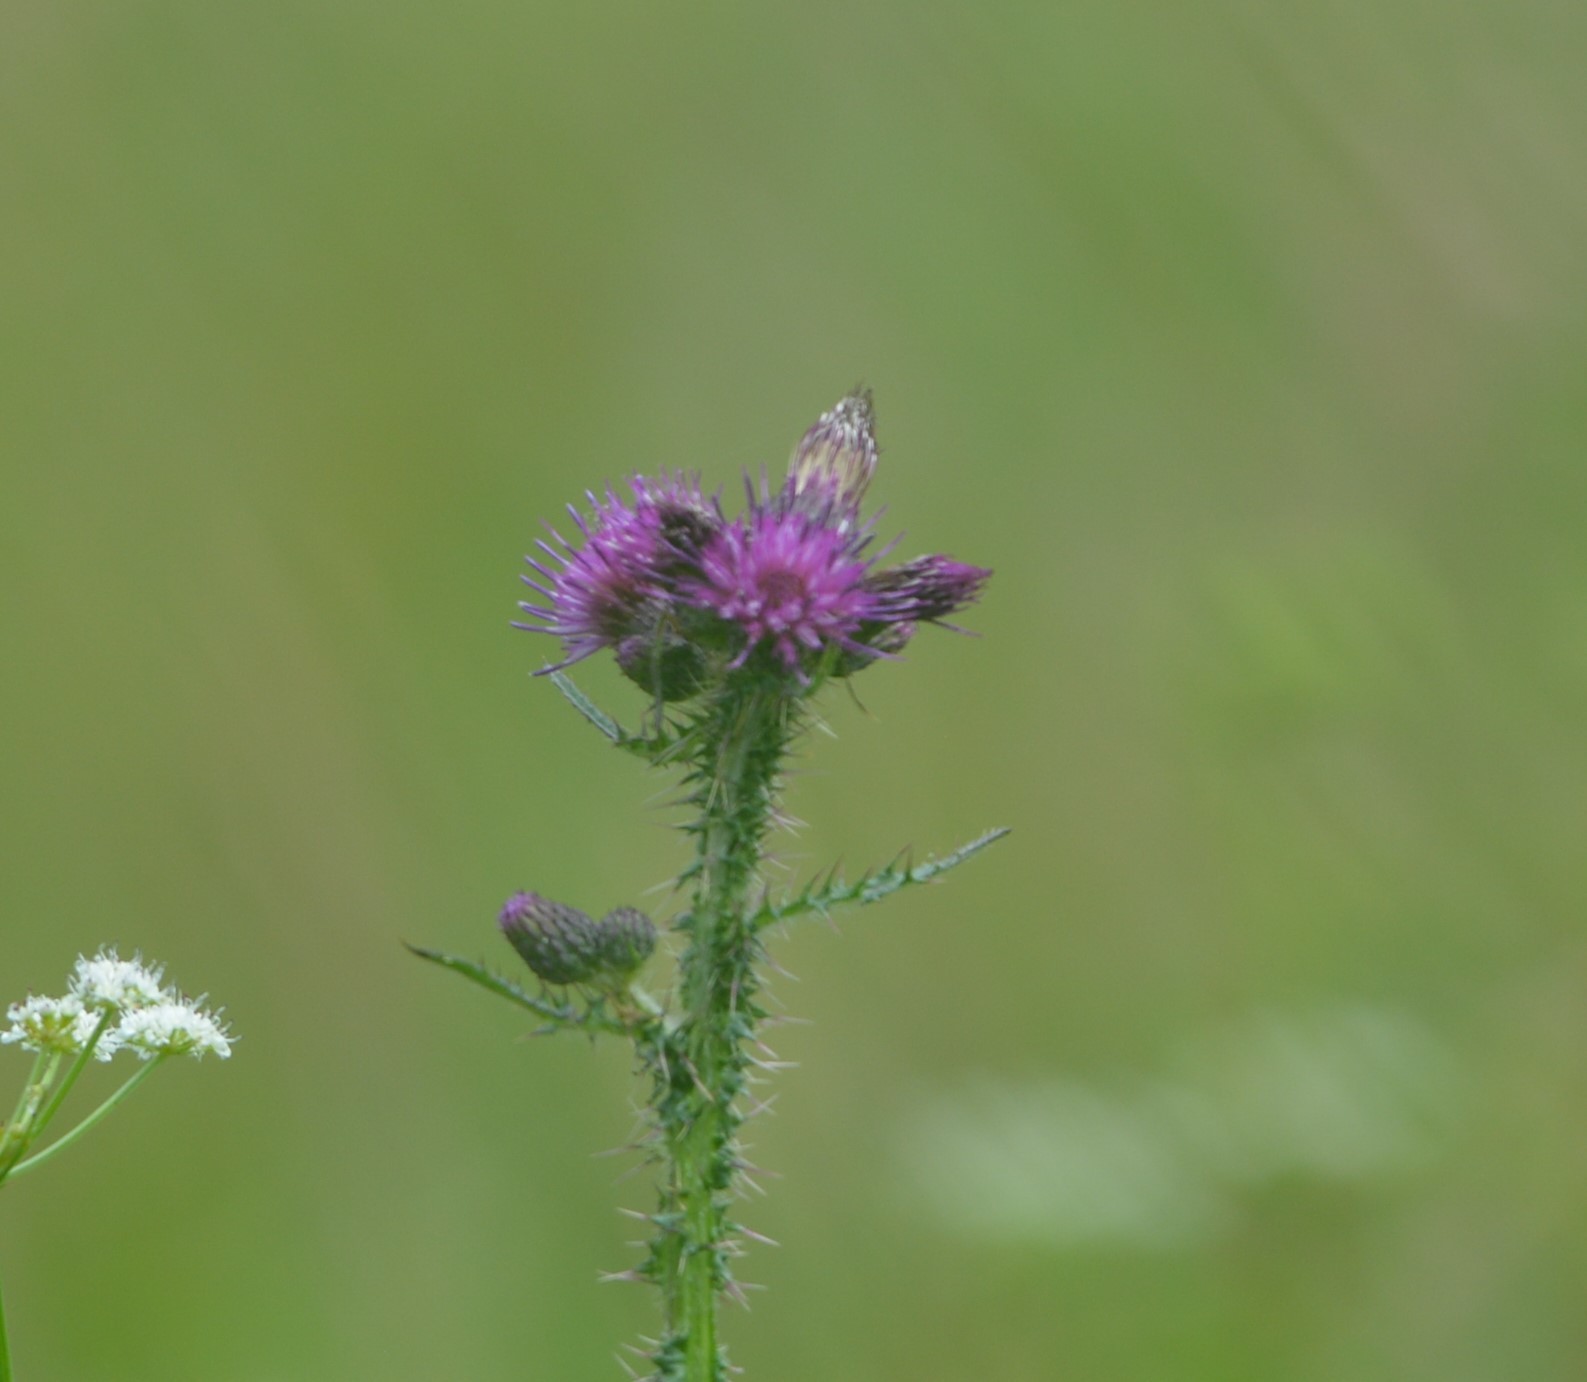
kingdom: Plantae
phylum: Tracheophyta
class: Magnoliopsida
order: Asterales
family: Asteraceae
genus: Cirsium
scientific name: Cirsium palustre
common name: Marsh thistle
